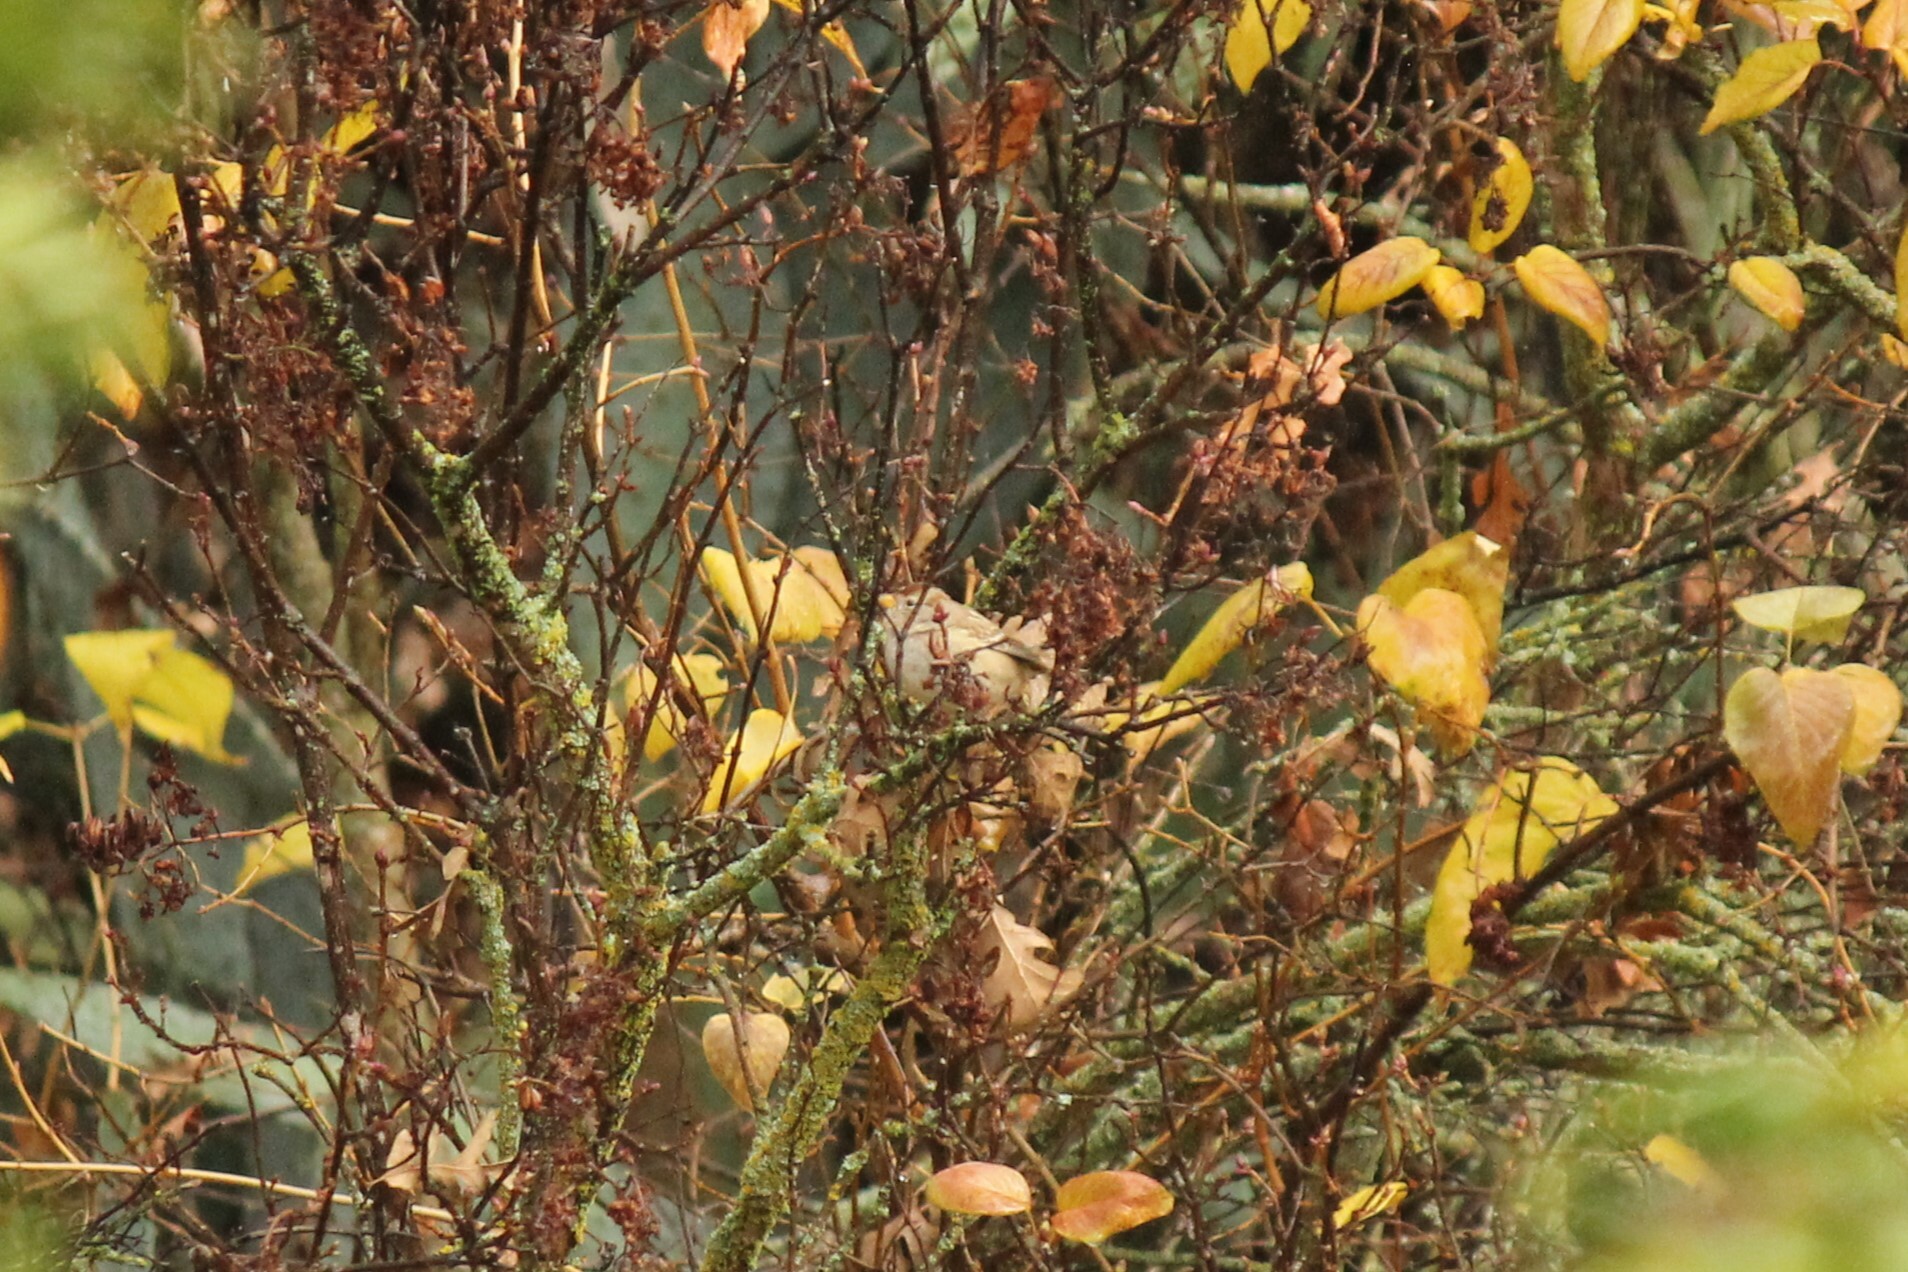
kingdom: Animalia
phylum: Chordata
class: Aves
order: Passeriformes
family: Passerellidae
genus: Zonotrichia
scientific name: Zonotrichia leucophrys
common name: White-crowned sparrow
